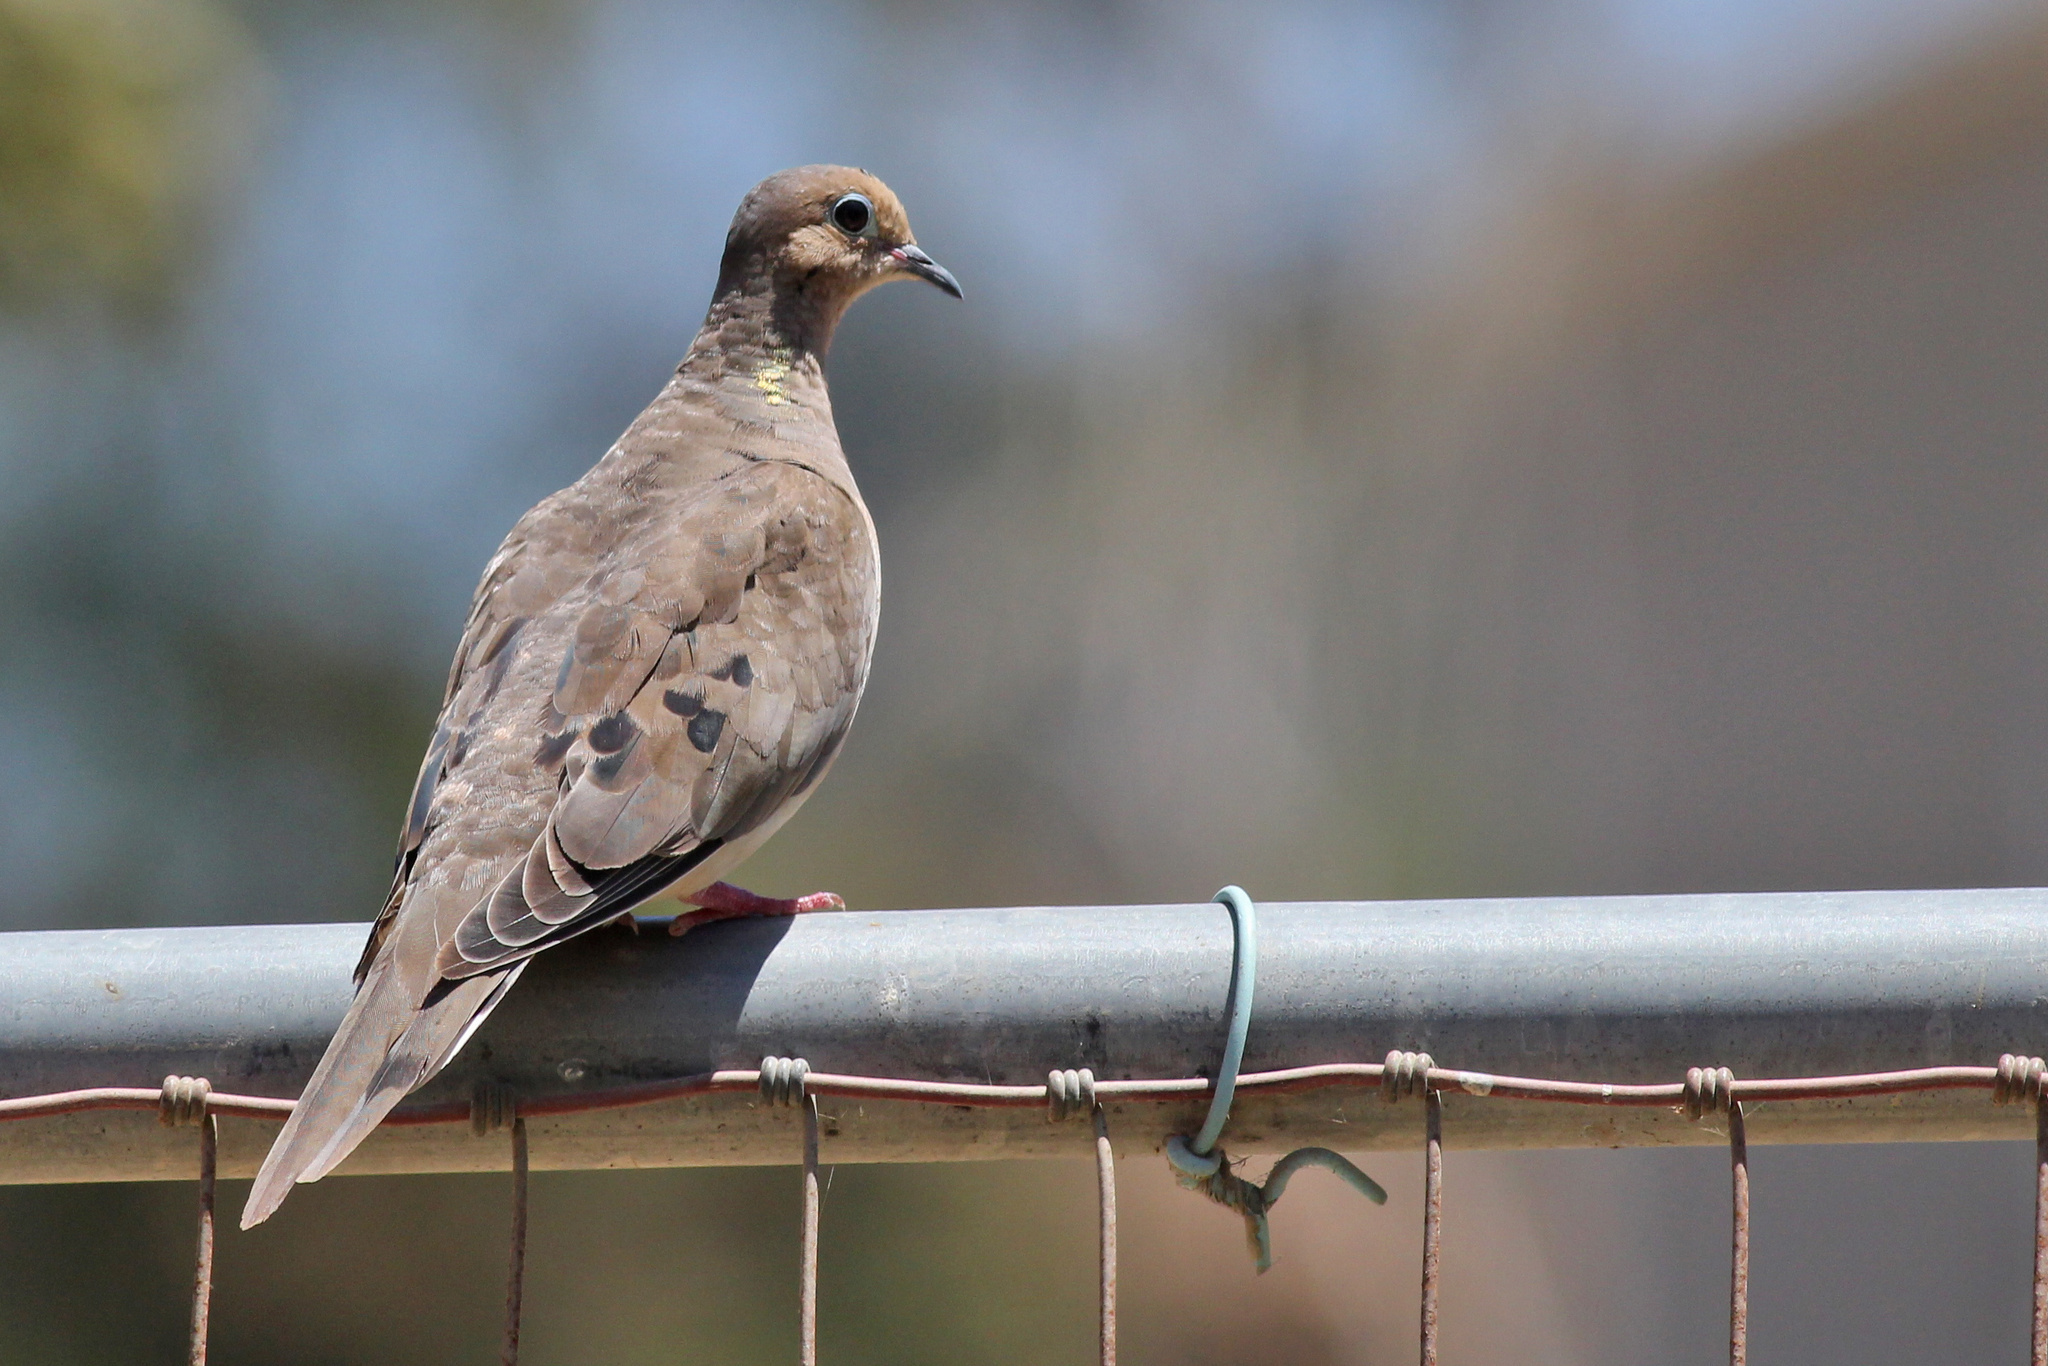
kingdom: Animalia
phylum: Chordata
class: Aves
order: Columbiformes
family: Columbidae
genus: Zenaida
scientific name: Zenaida macroura
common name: Mourning dove
